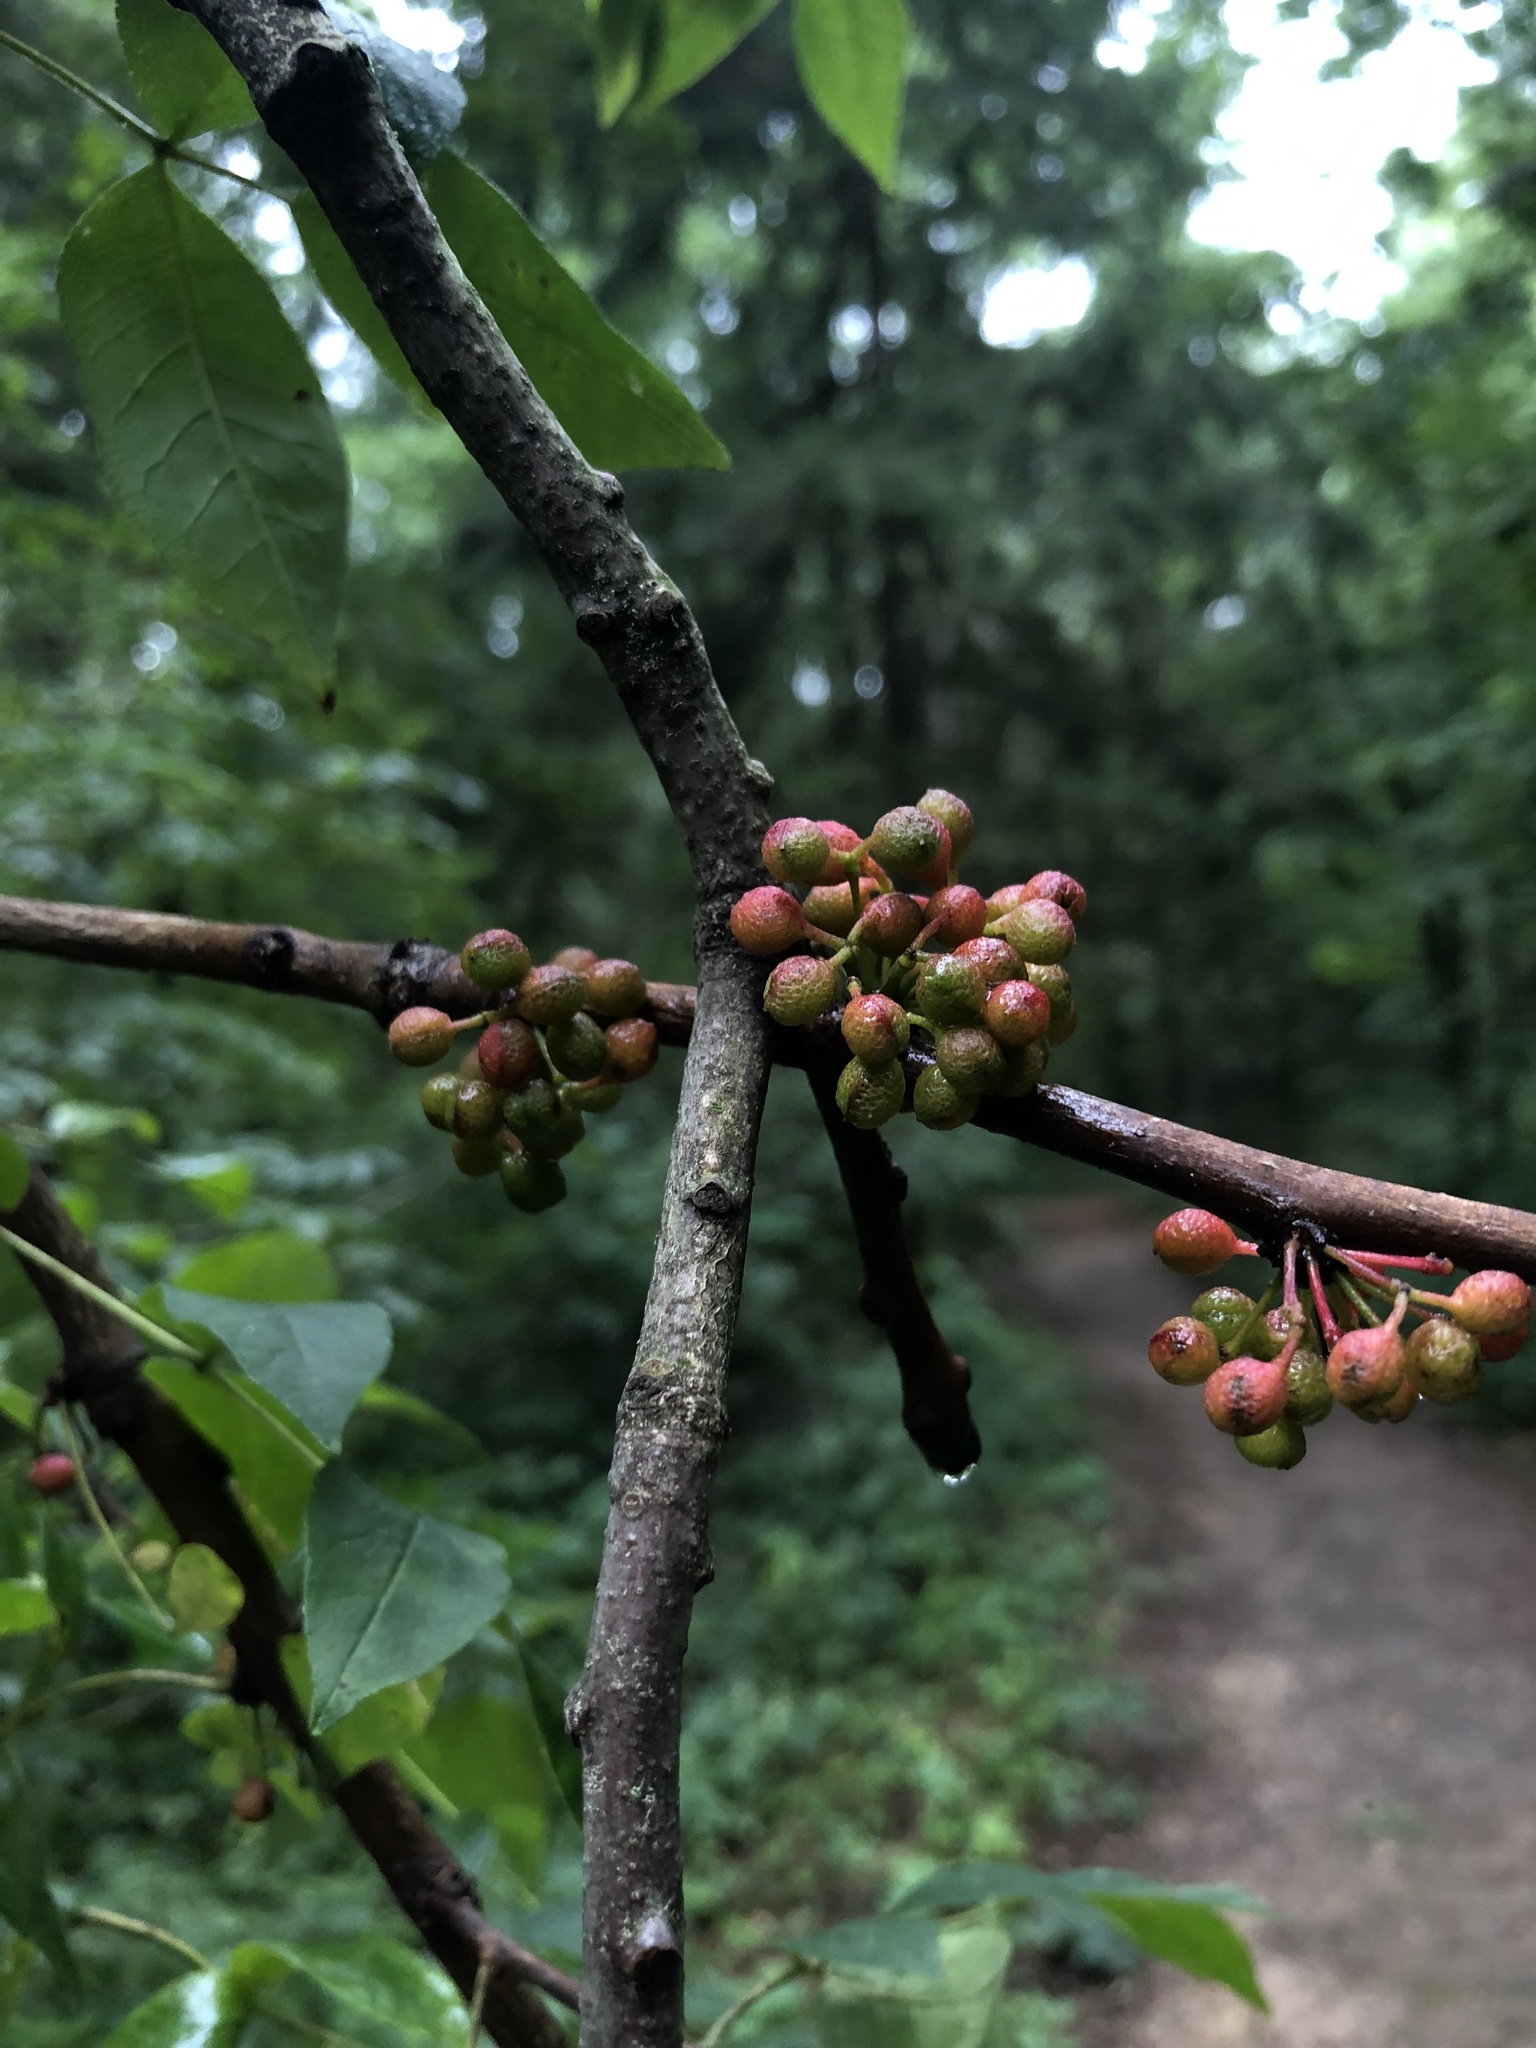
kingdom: Plantae
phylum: Tracheophyta
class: Magnoliopsida
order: Sapindales
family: Rutaceae
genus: Zanthoxylum
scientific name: Zanthoxylum americanum
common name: Northern prickly-ash
